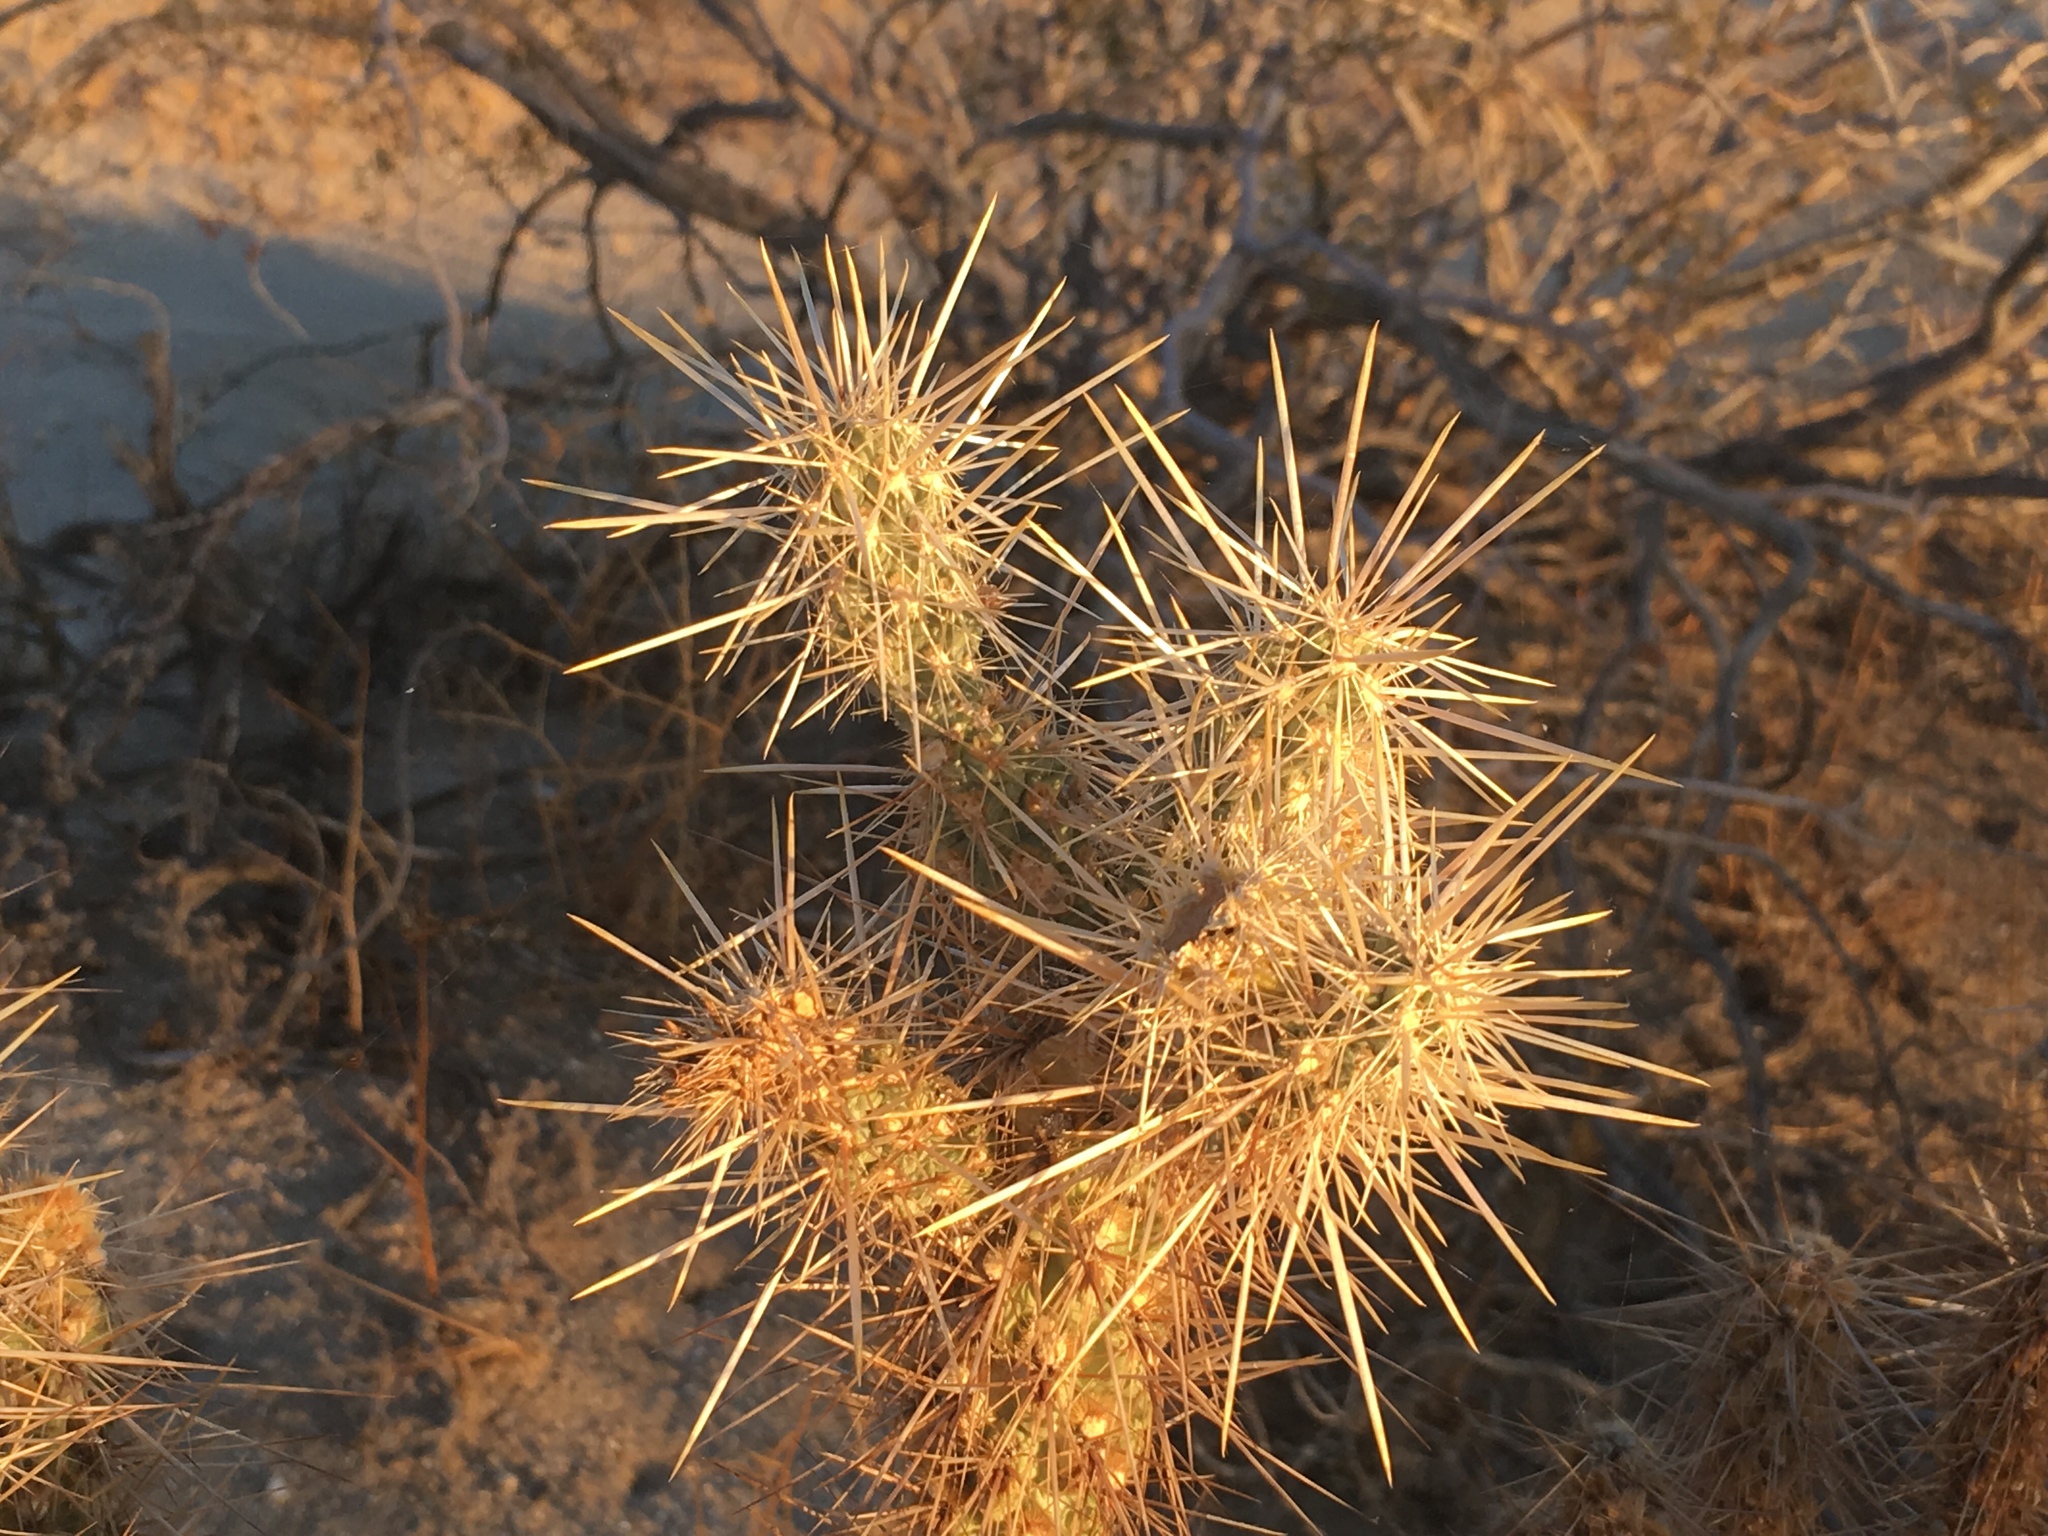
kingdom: Plantae
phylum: Tracheophyta
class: Magnoliopsida
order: Caryophyllales
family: Cactaceae
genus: Cylindropuntia
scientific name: Cylindropuntia echinocarpa
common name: Ground cholla
